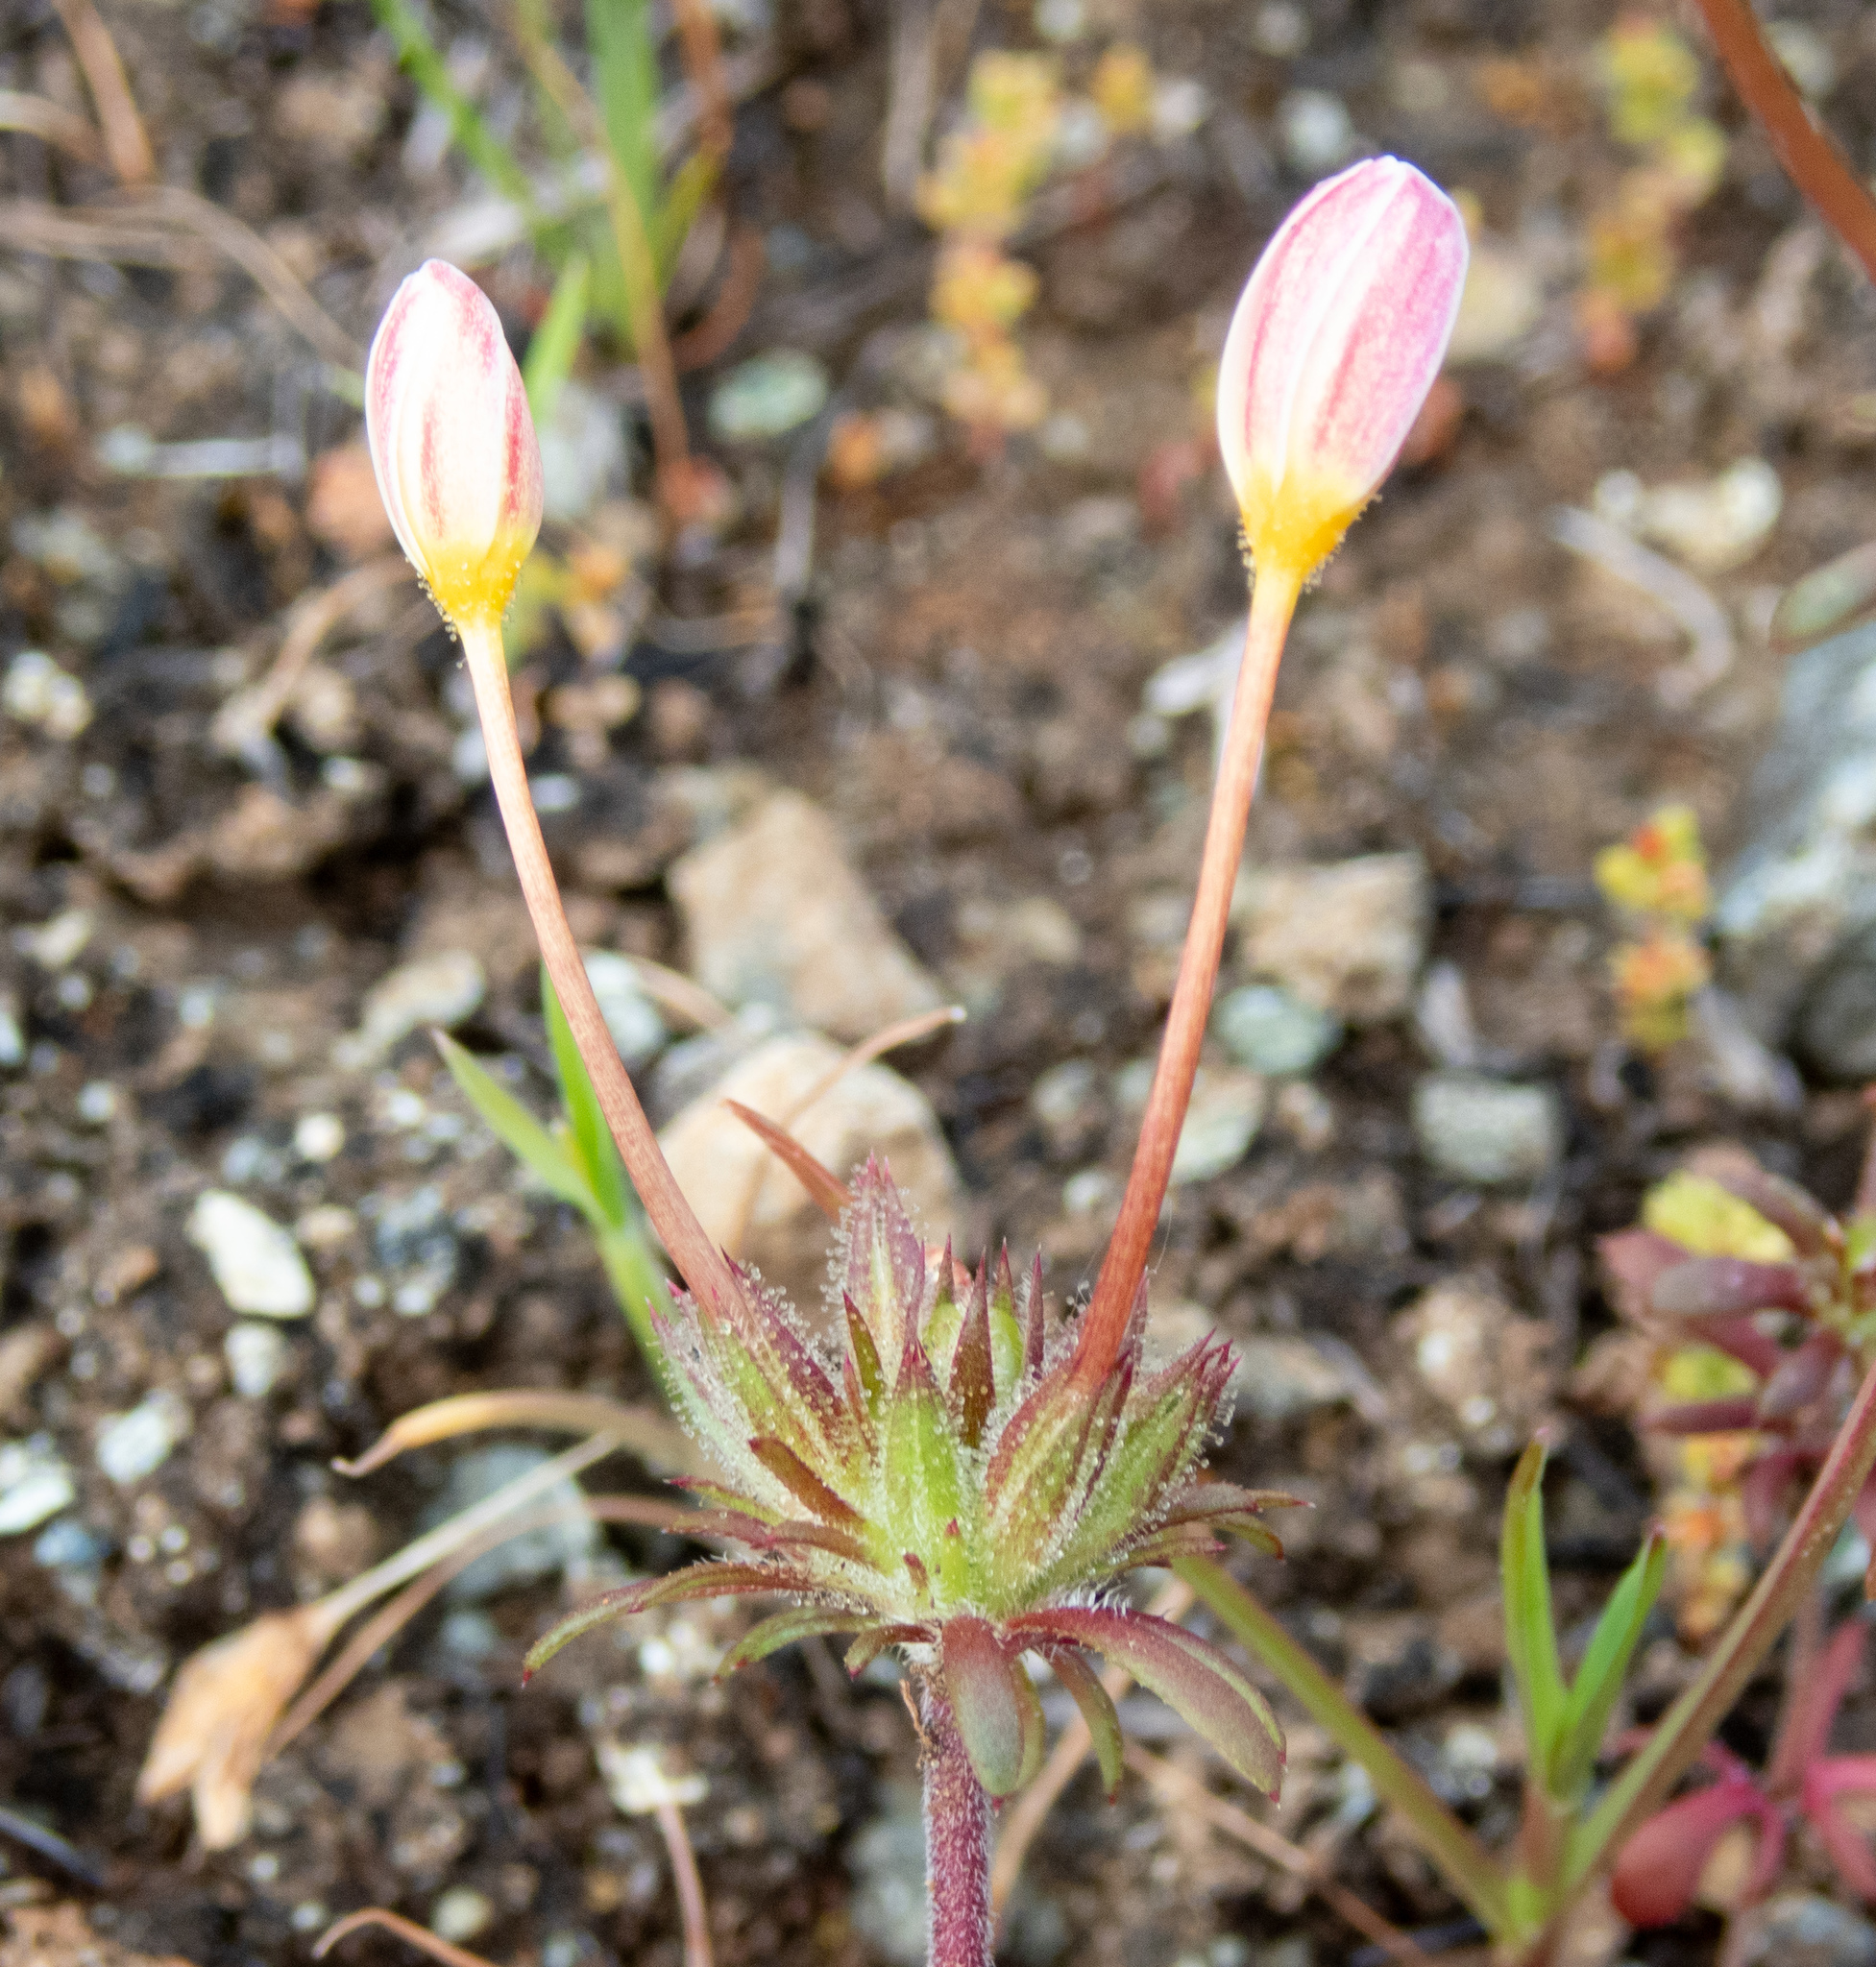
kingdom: Plantae
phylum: Tracheophyta
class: Magnoliopsida
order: Ericales
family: Polemoniaceae
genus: Leptosiphon
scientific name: Leptosiphon parviflorus
